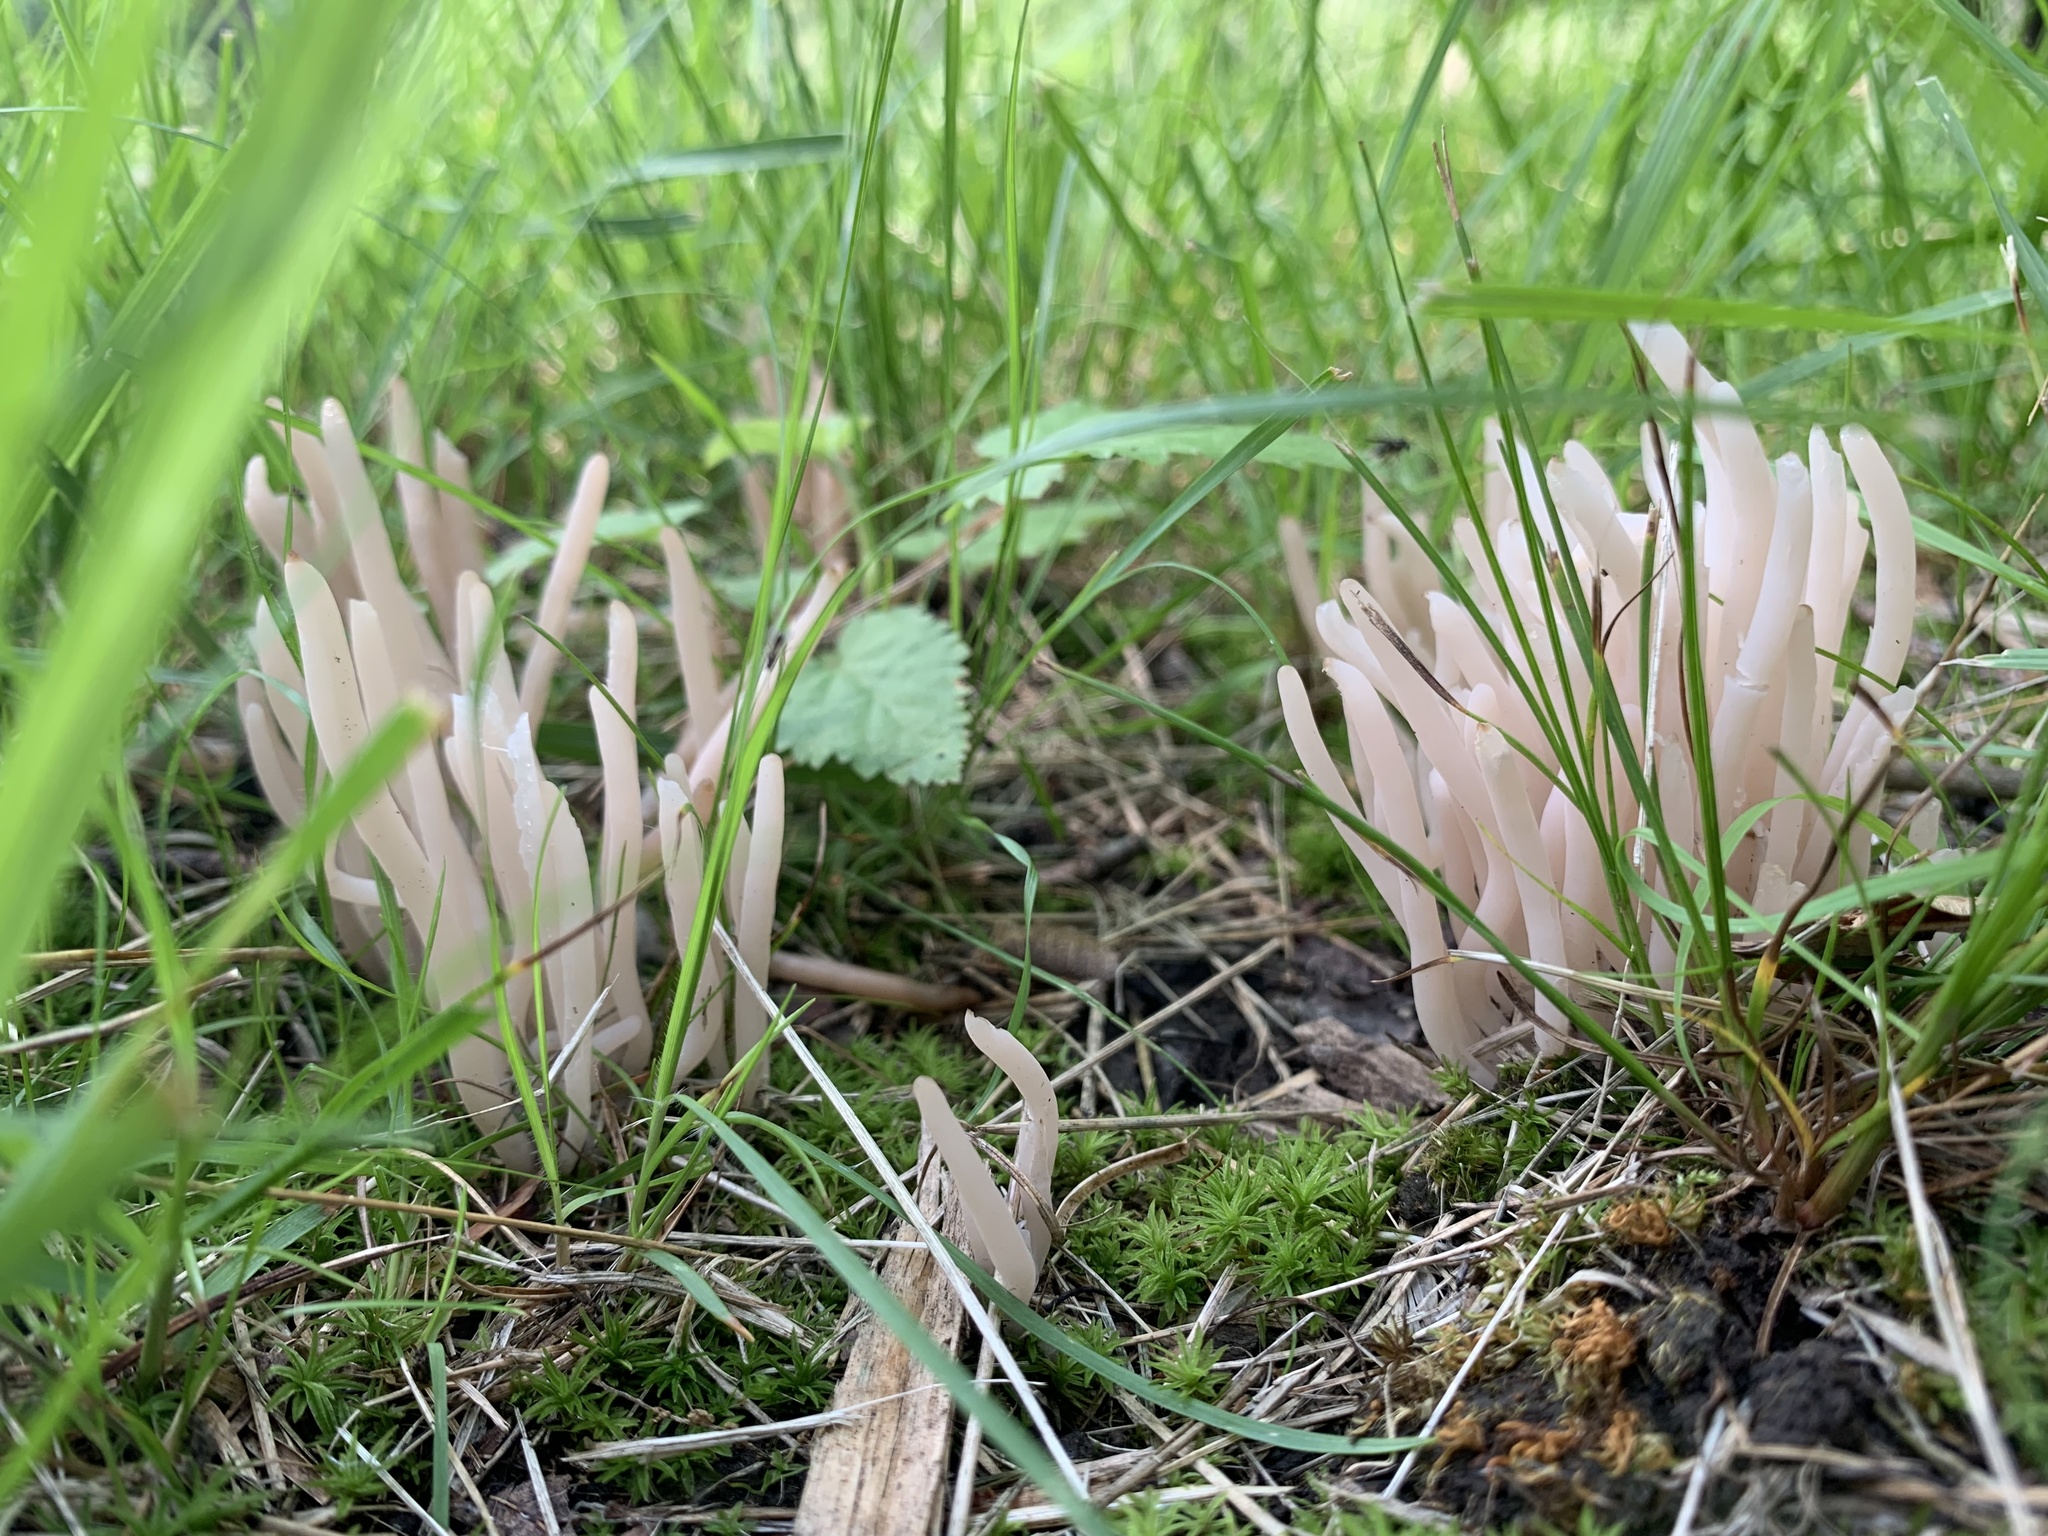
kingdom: Fungi
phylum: Basidiomycota
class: Agaricomycetes
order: Agaricales
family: Clavariaceae
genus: Clavaria
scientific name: Clavaria fragilis
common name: White spindles
